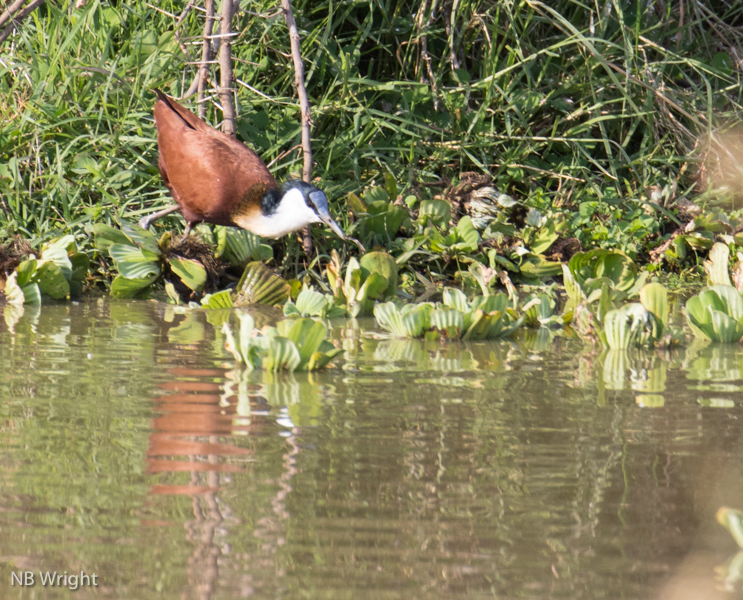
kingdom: Animalia
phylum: Chordata
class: Aves
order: Charadriiformes
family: Jacanidae
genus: Actophilornis
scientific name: Actophilornis africanus
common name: African jacana
